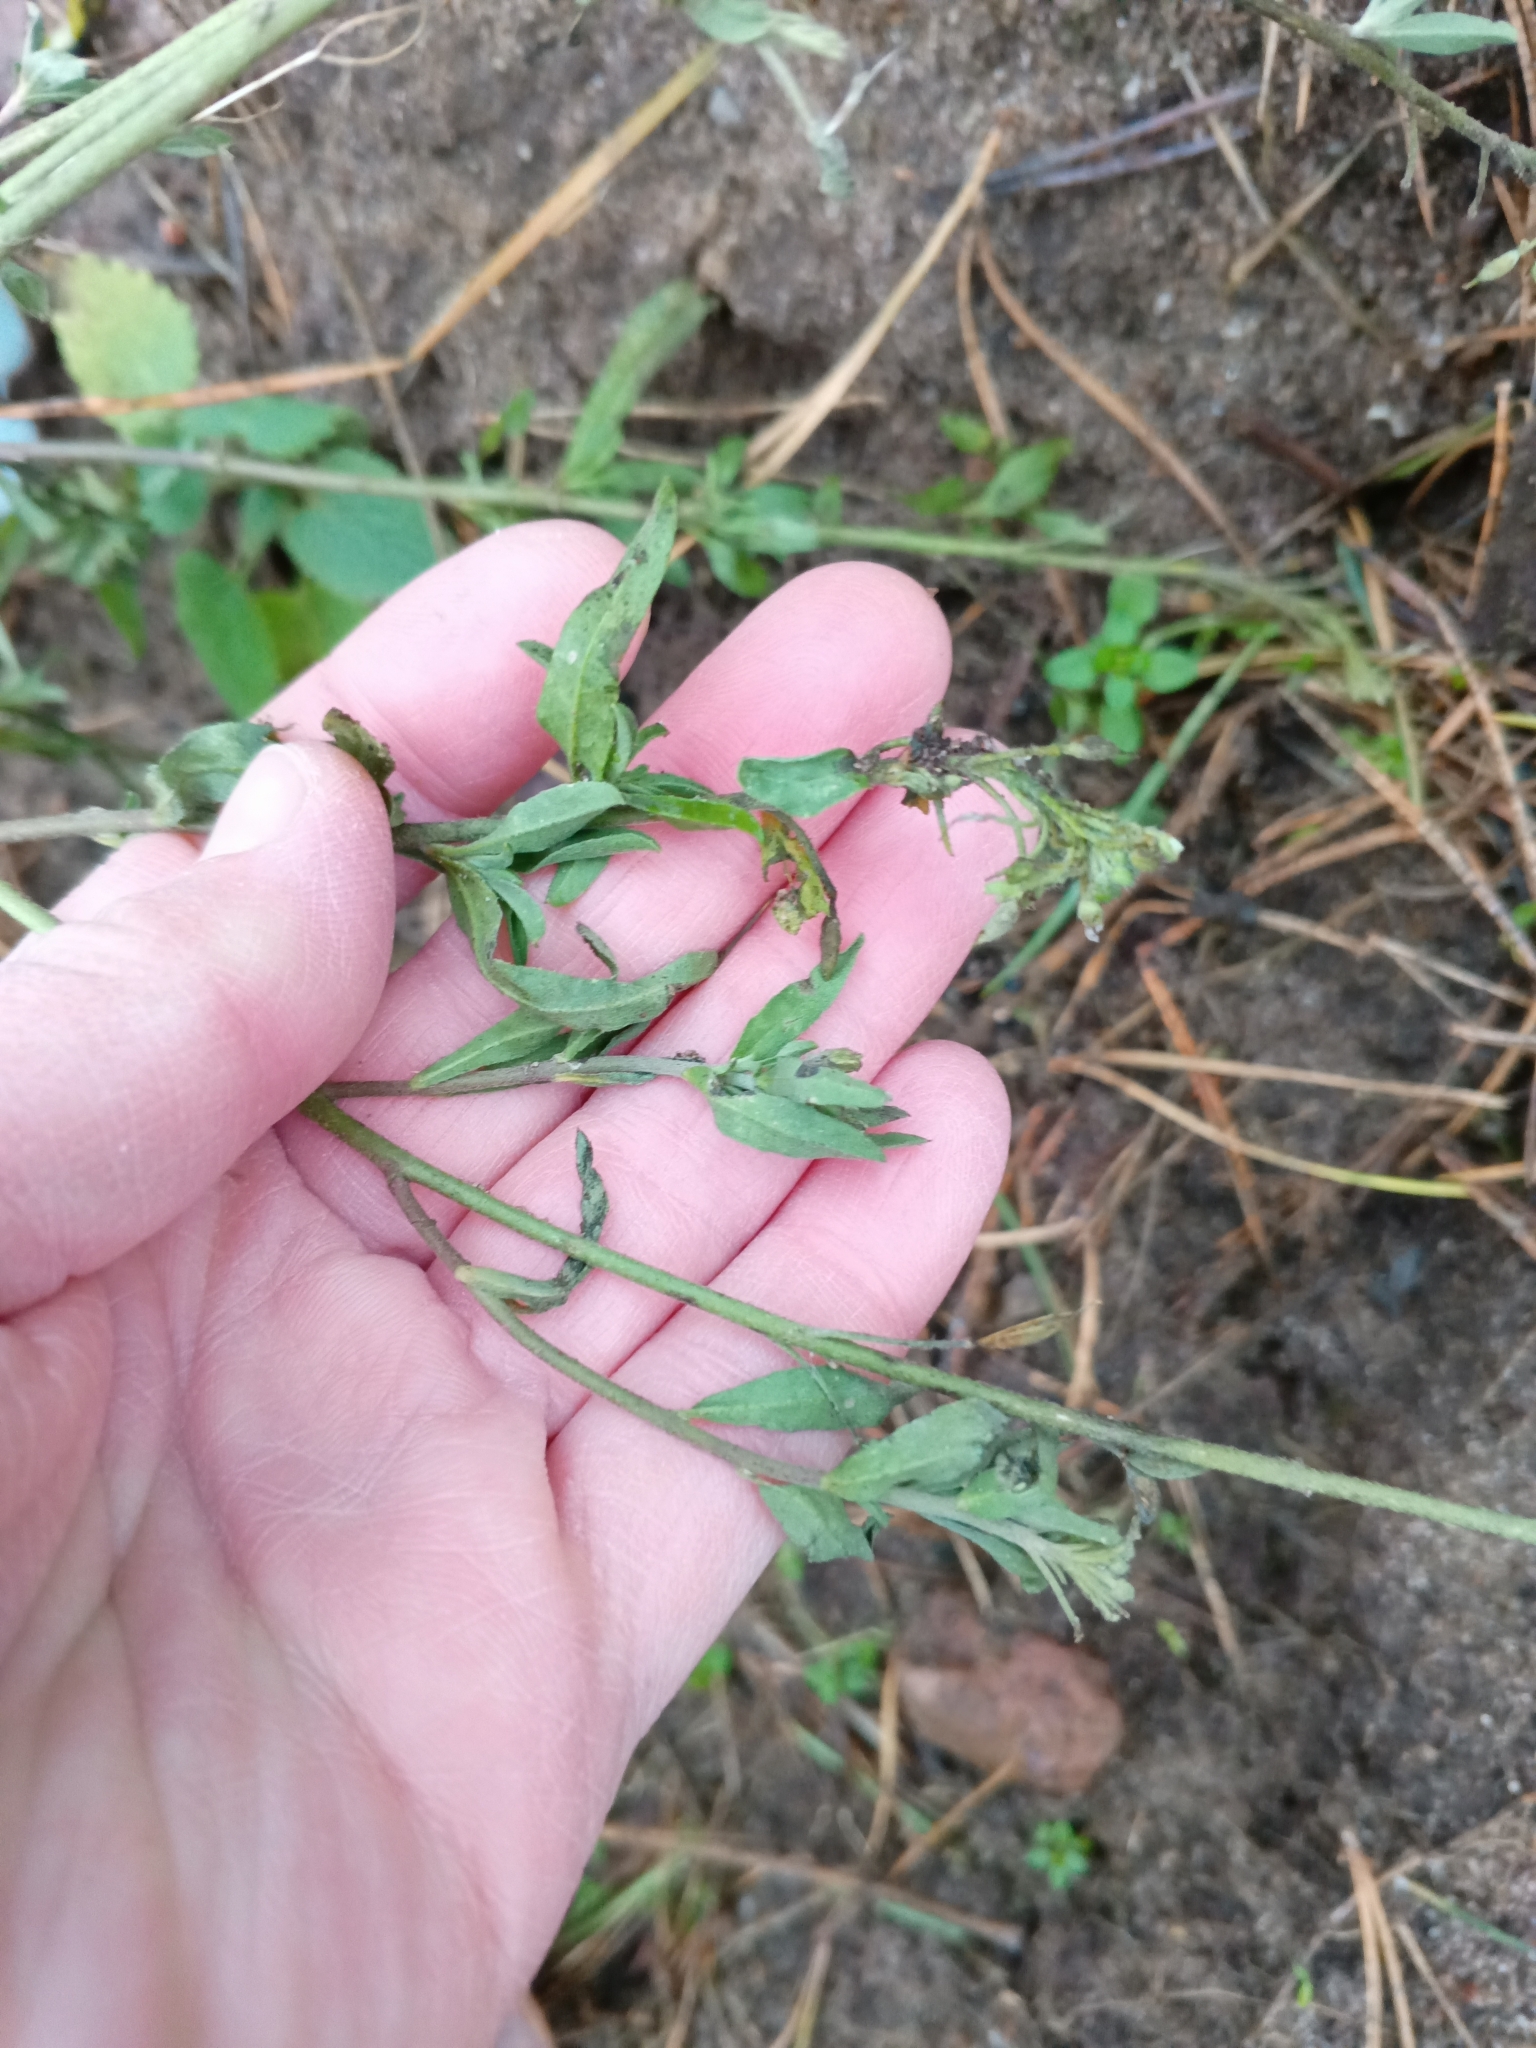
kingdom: Plantae
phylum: Tracheophyta
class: Magnoliopsida
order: Brassicales
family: Brassicaceae
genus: Berteroa
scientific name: Berteroa incana
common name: Hoary alison
